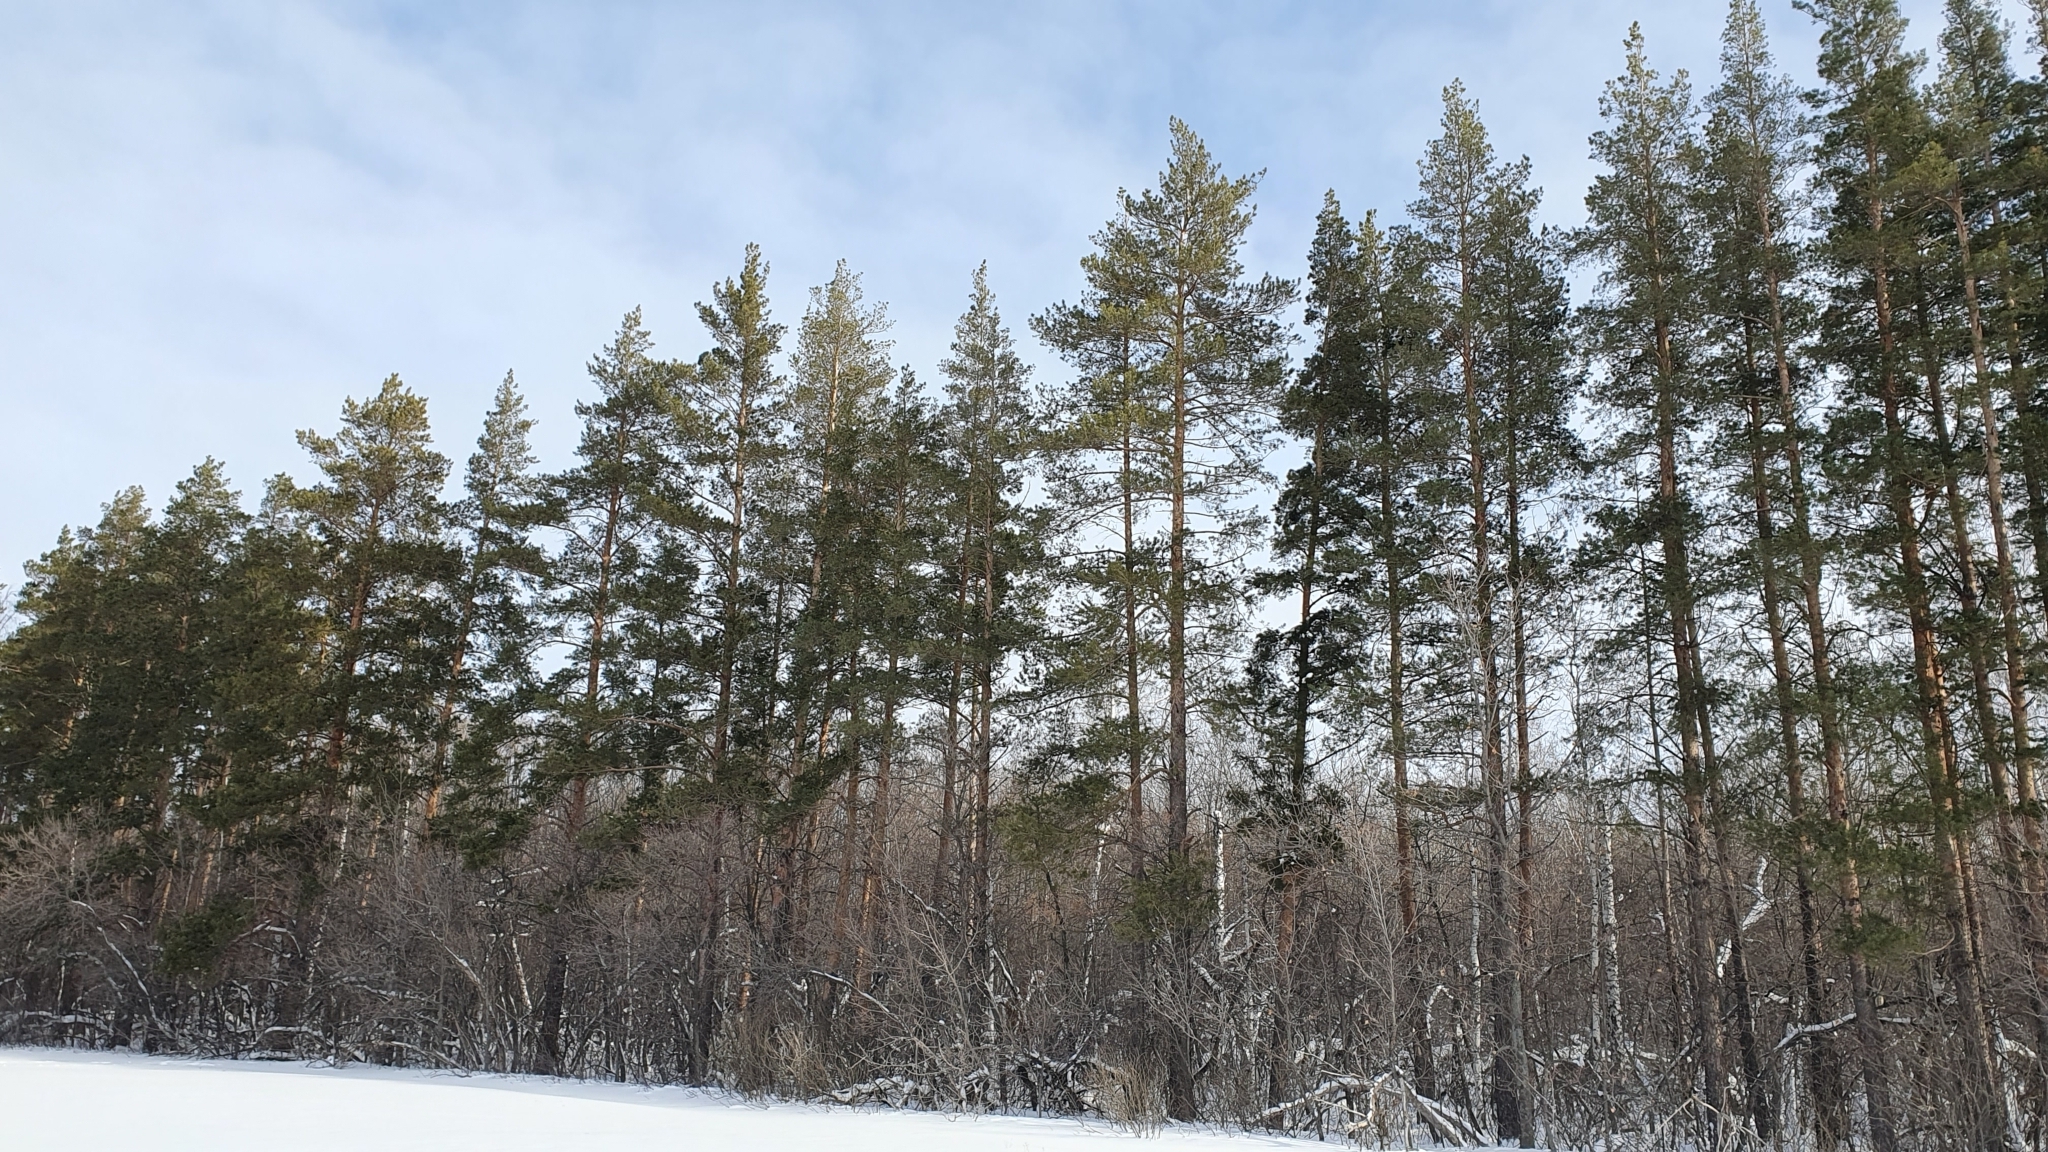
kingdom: Plantae
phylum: Tracheophyta
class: Pinopsida
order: Pinales
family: Pinaceae
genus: Pinus
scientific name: Pinus sylvestris
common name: Scots pine
